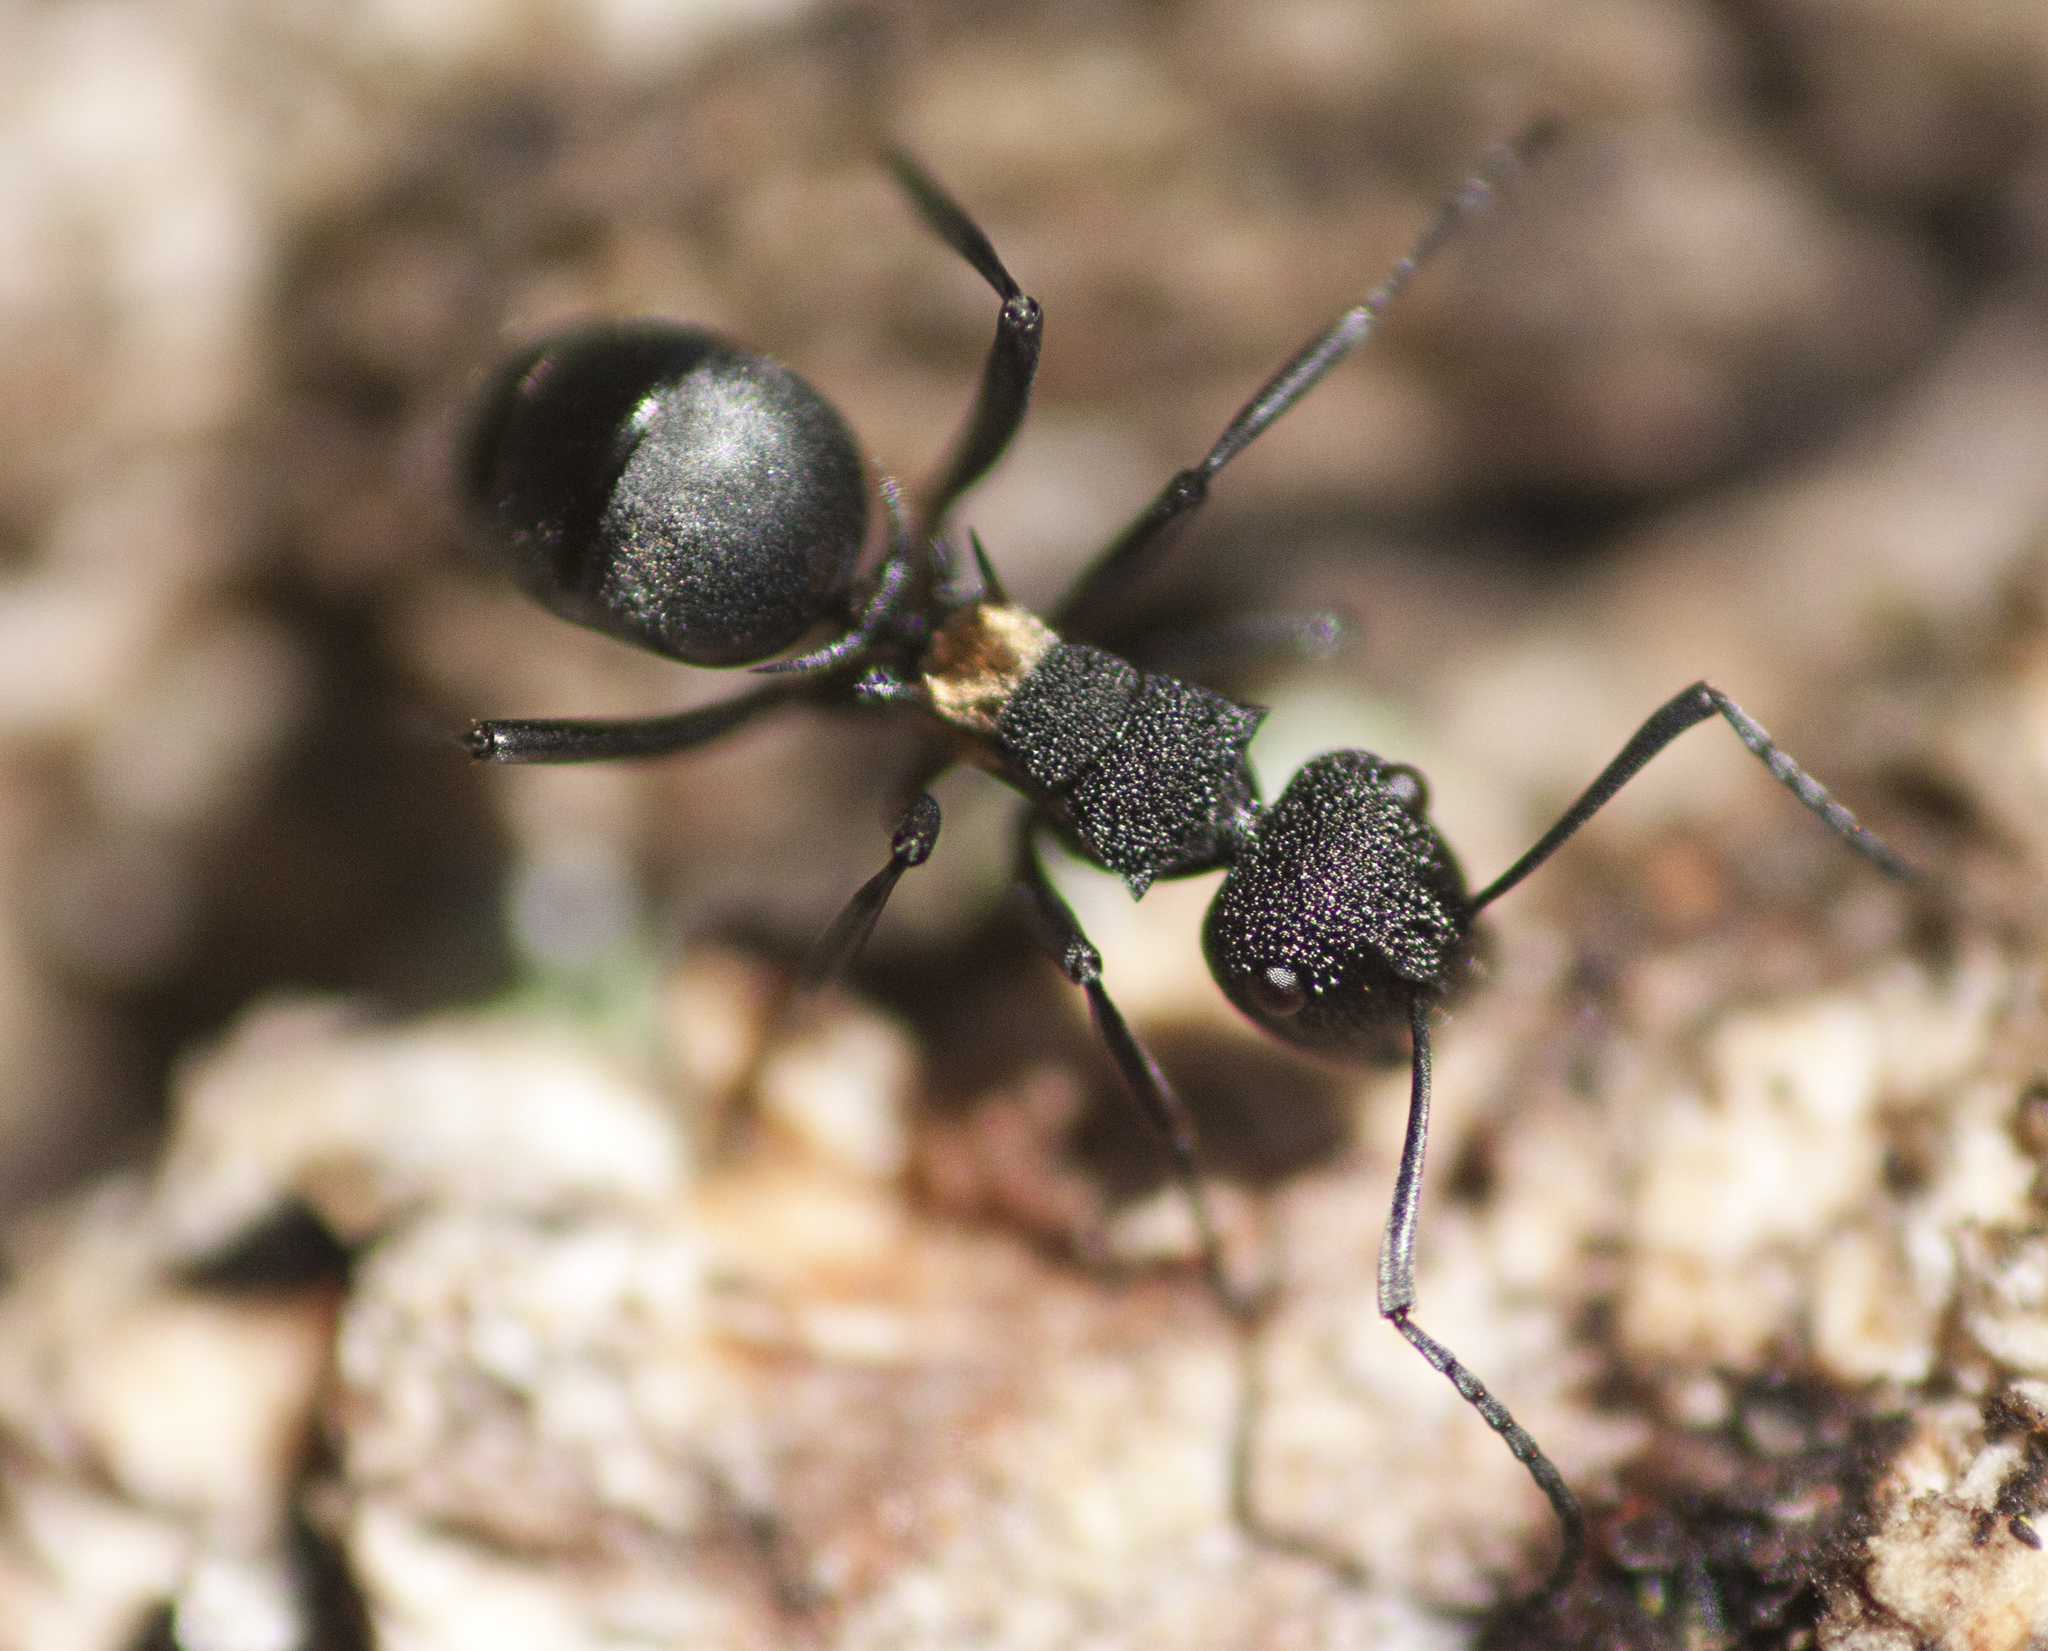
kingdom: Animalia
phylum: Arthropoda
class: Insecta
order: Hymenoptera
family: Formicidae
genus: Polyrhachis
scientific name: Polyrhachis machaon
